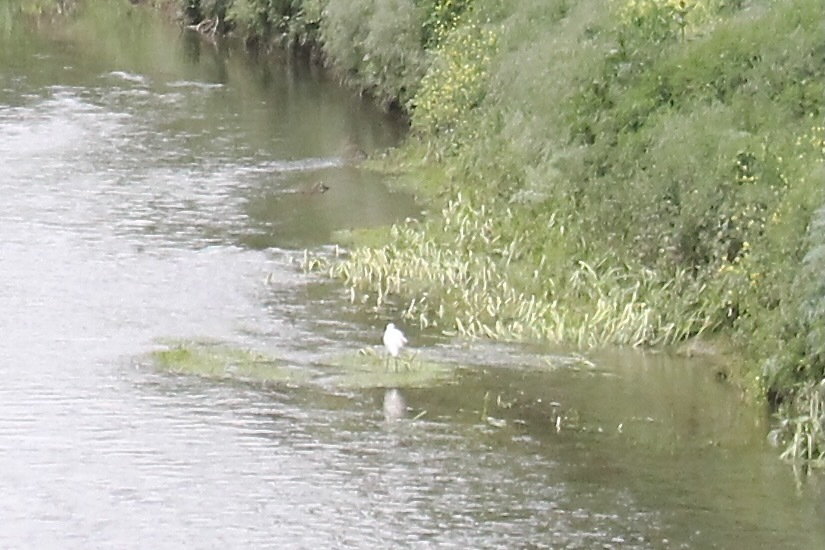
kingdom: Animalia
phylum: Chordata
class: Aves
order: Pelecaniformes
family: Ardeidae
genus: Egretta
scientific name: Egretta garzetta
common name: Little egret
